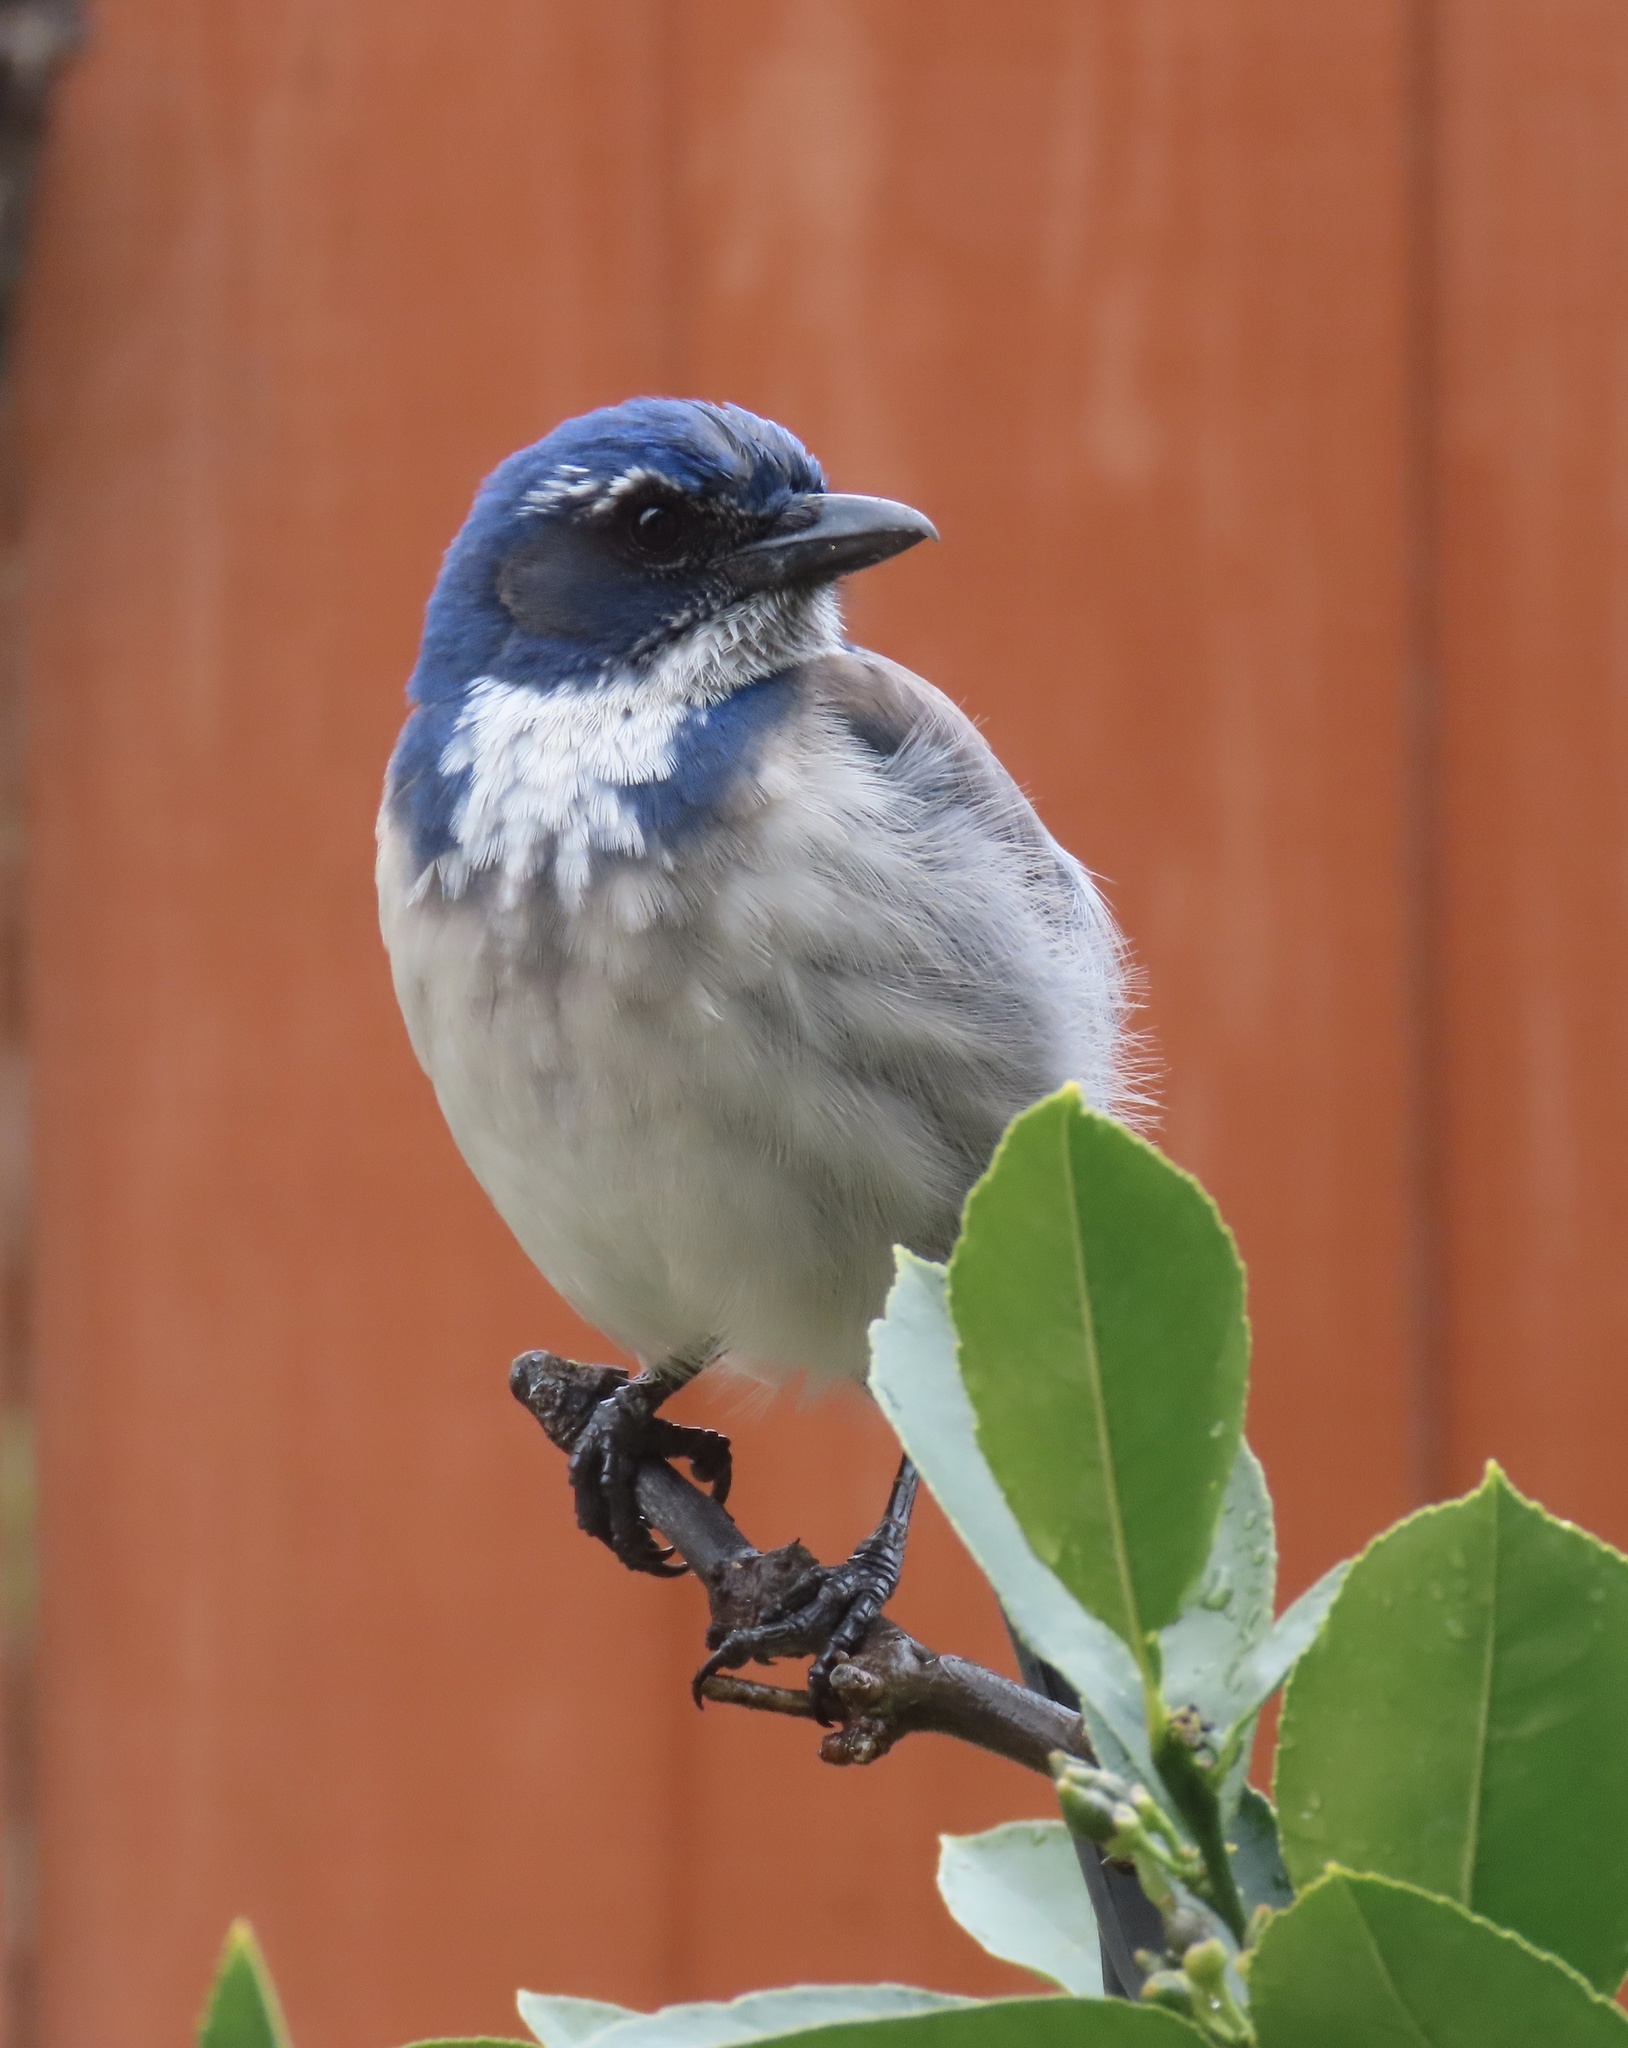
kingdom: Animalia
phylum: Chordata
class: Aves
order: Passeriformes
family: Corvidae
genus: Aphelocoma
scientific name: Aphelocoma californica
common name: California scrub-jay
